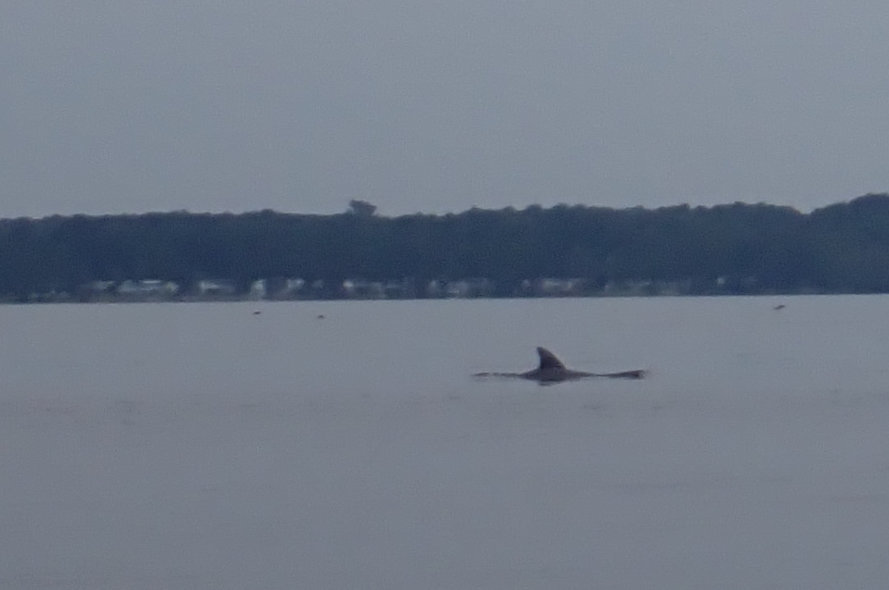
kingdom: Animalia
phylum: Chordata
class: Mammalia
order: Cetacea
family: Delphinidae
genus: Tursiops
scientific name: Tursiops truncatus
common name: Bottlenose dolphin
